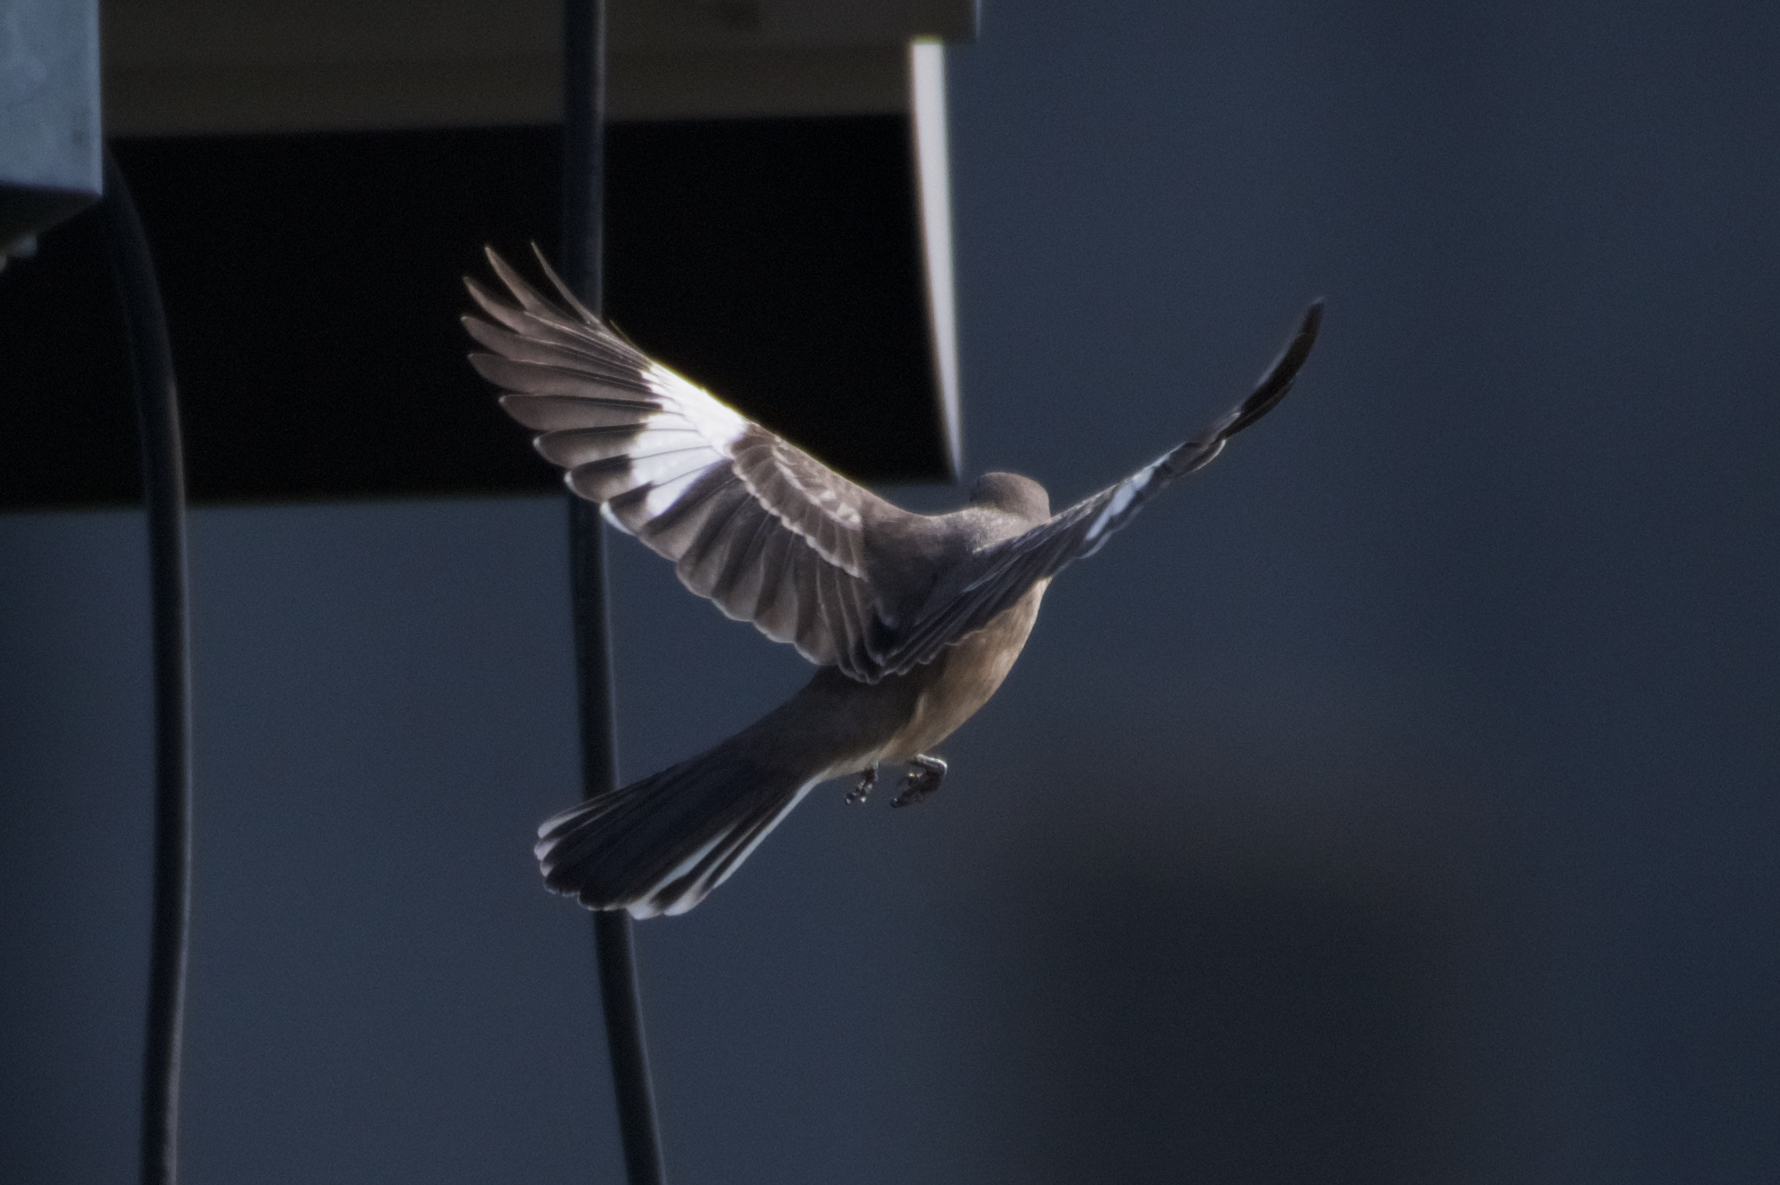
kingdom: Animalia
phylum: Chordata
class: Aves
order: Passeriformes
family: Mimidae
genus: Mimus
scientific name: Mimus polyglottos
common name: Northern mockingbird
